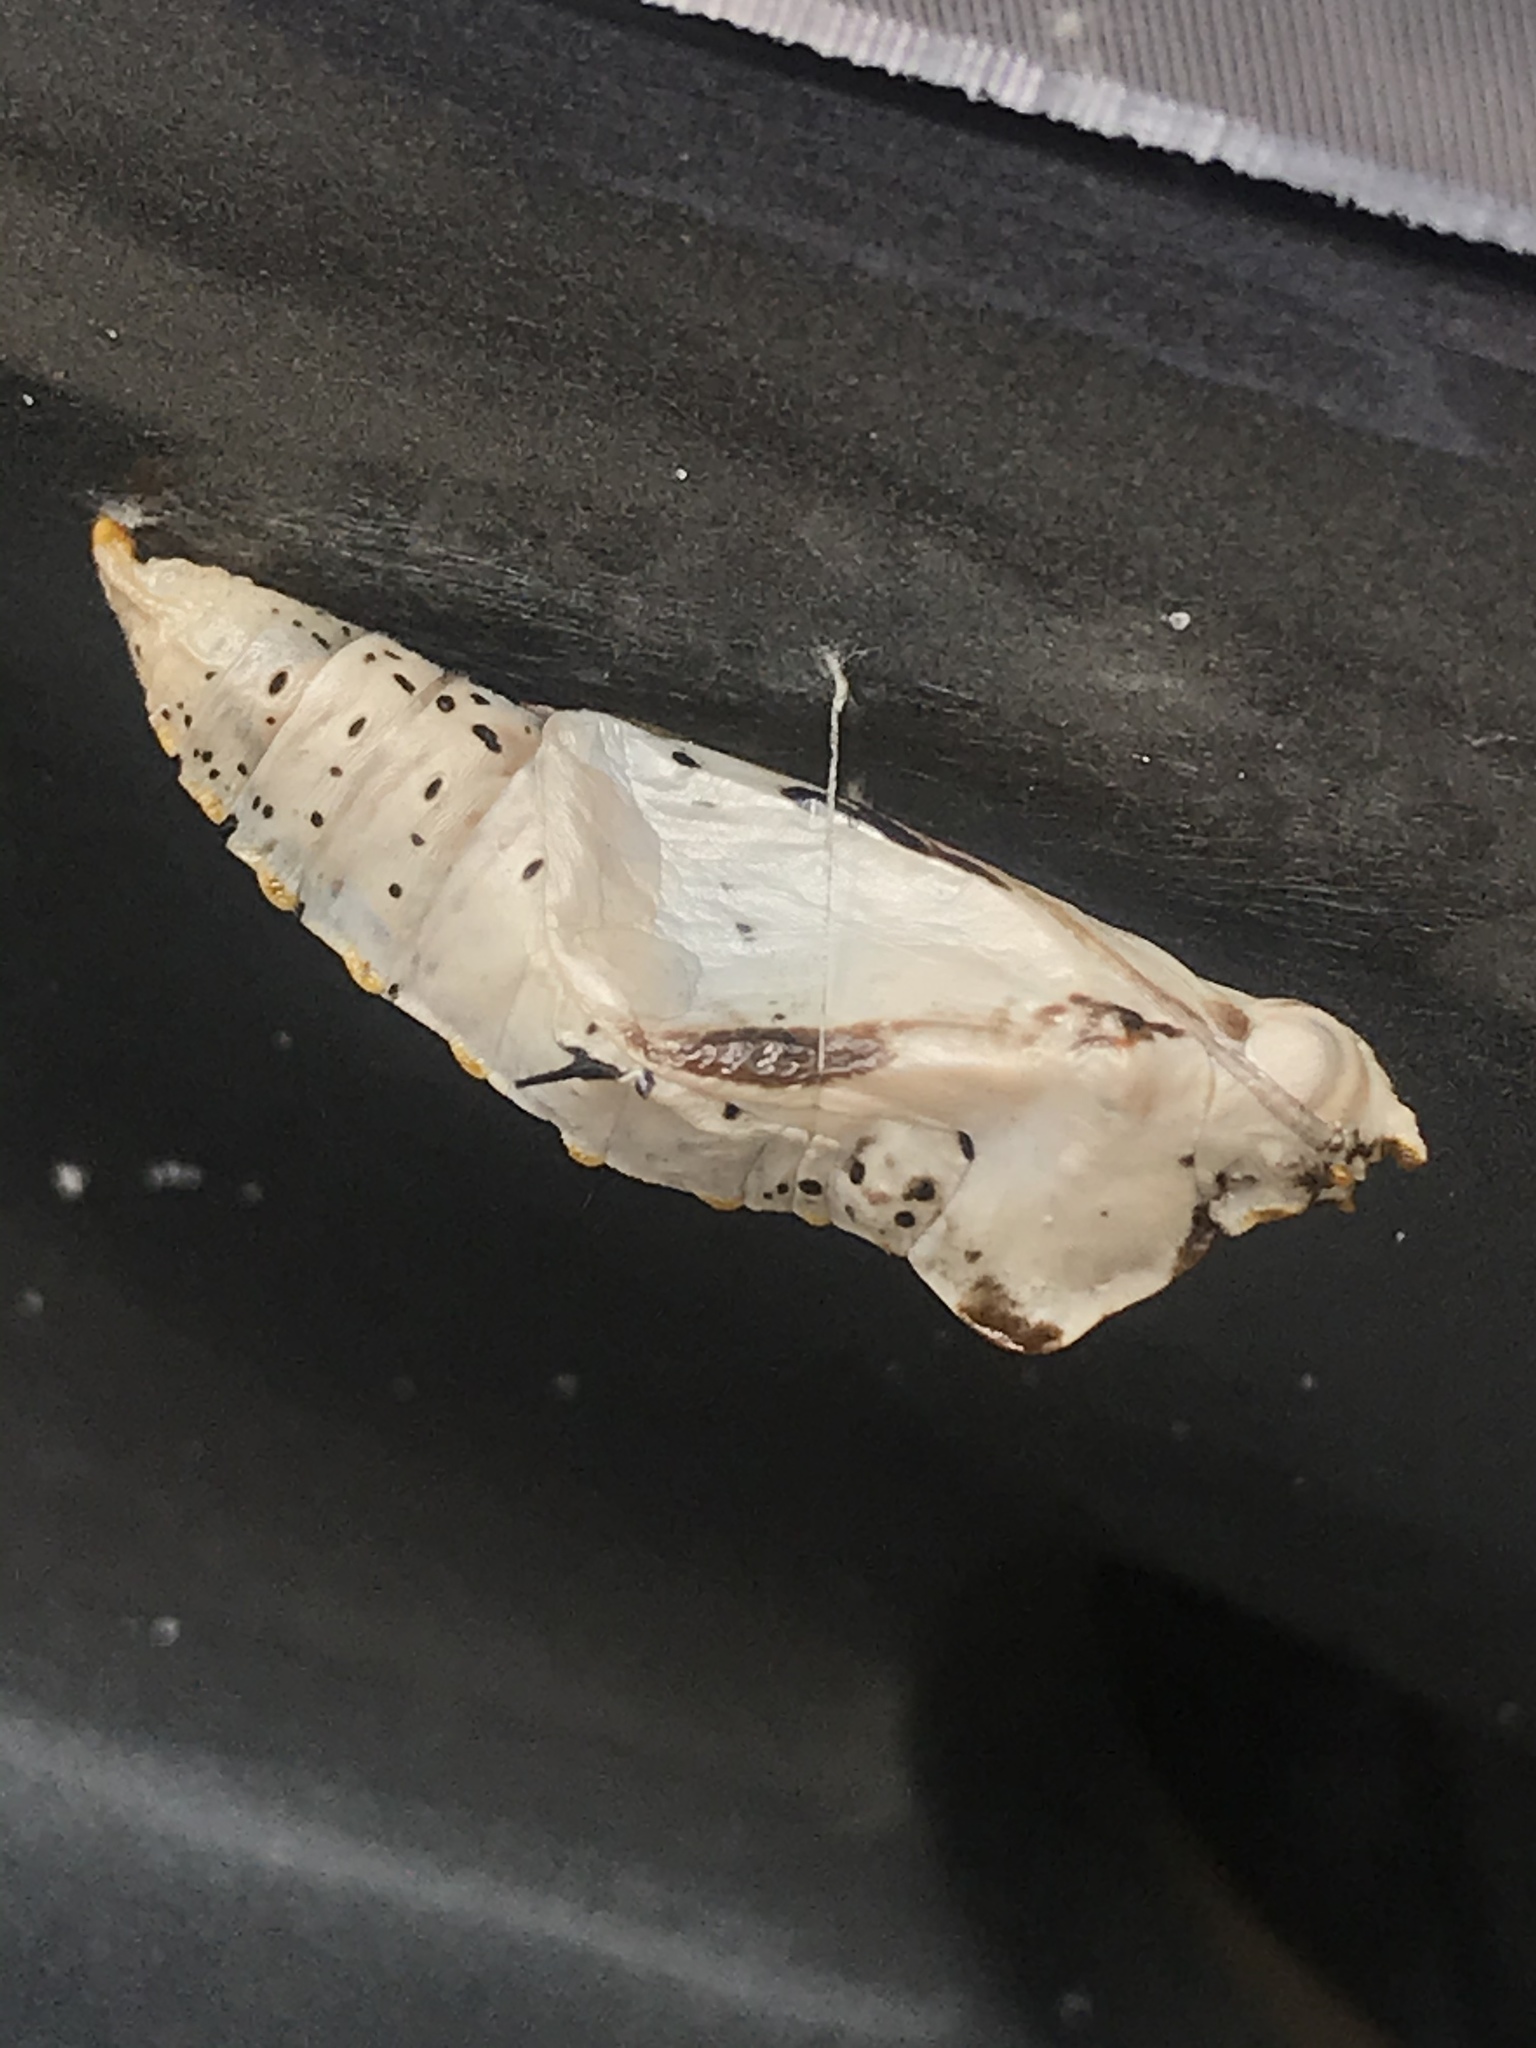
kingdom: Animalia
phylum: Arthropoda
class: Insecta
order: Lepidoptera
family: Pieridae
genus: Ascia
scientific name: Ascia monuste
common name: Great southern white
